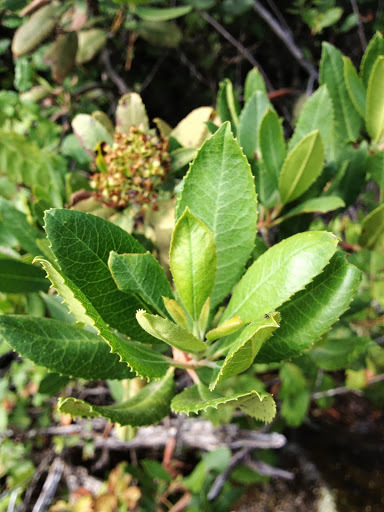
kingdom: Plantae
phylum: Tracheophyta
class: Magnoliopsida
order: Rosales
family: Rosaceae
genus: Heteromeles
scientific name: Heteromeles arbutifolia
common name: California-holly
